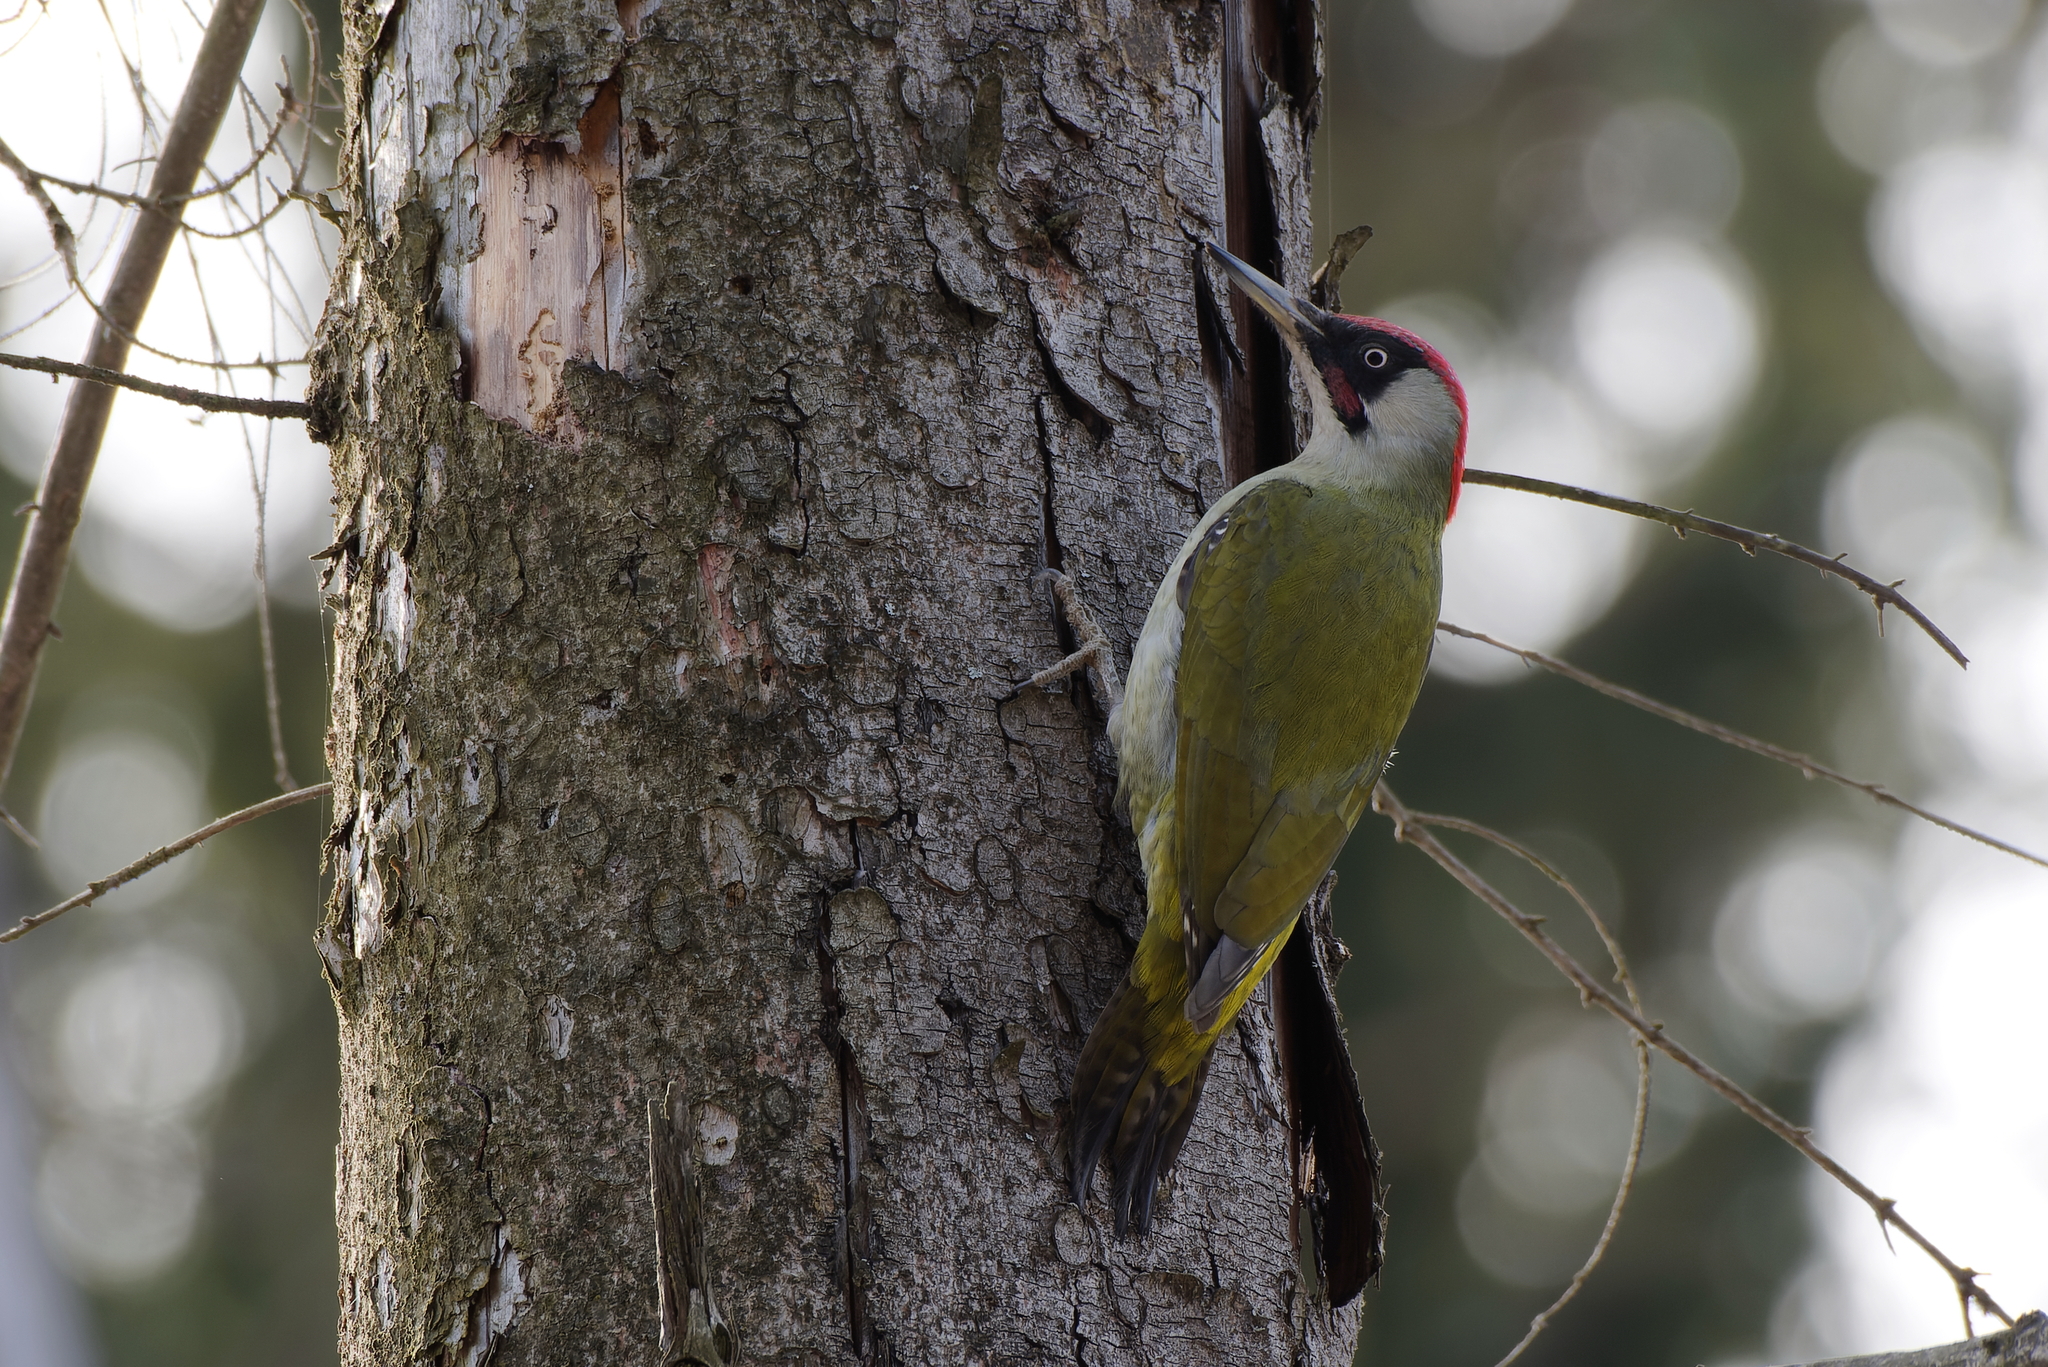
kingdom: Animalia
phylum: Chordata
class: Aves
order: Piciformes
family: Picidae
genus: Picus
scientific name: Picus viridis
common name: European green woodpecker
